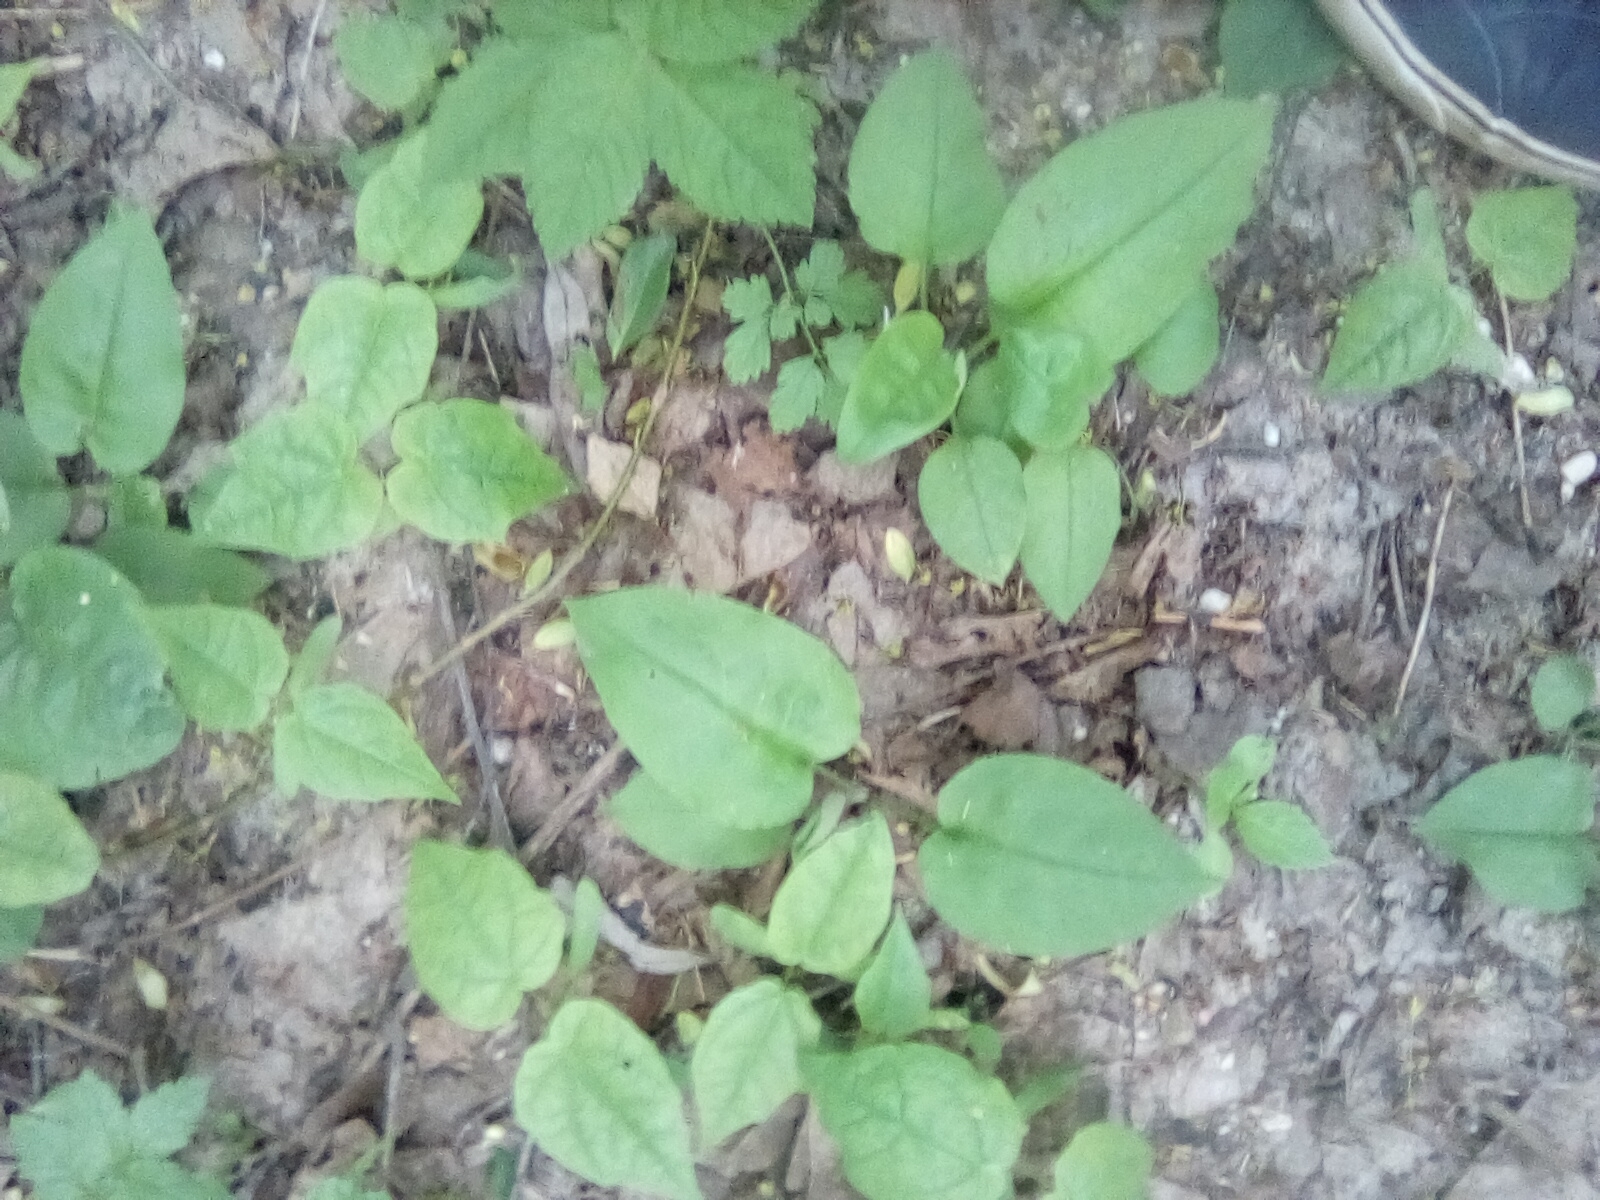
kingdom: Plantae
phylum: Tracheophyta
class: Magnoliopsida
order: Boraginales
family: Boraginaceae
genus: Pulmonaria
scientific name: Pulmonaria obscura
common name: Suffolk lungwort
